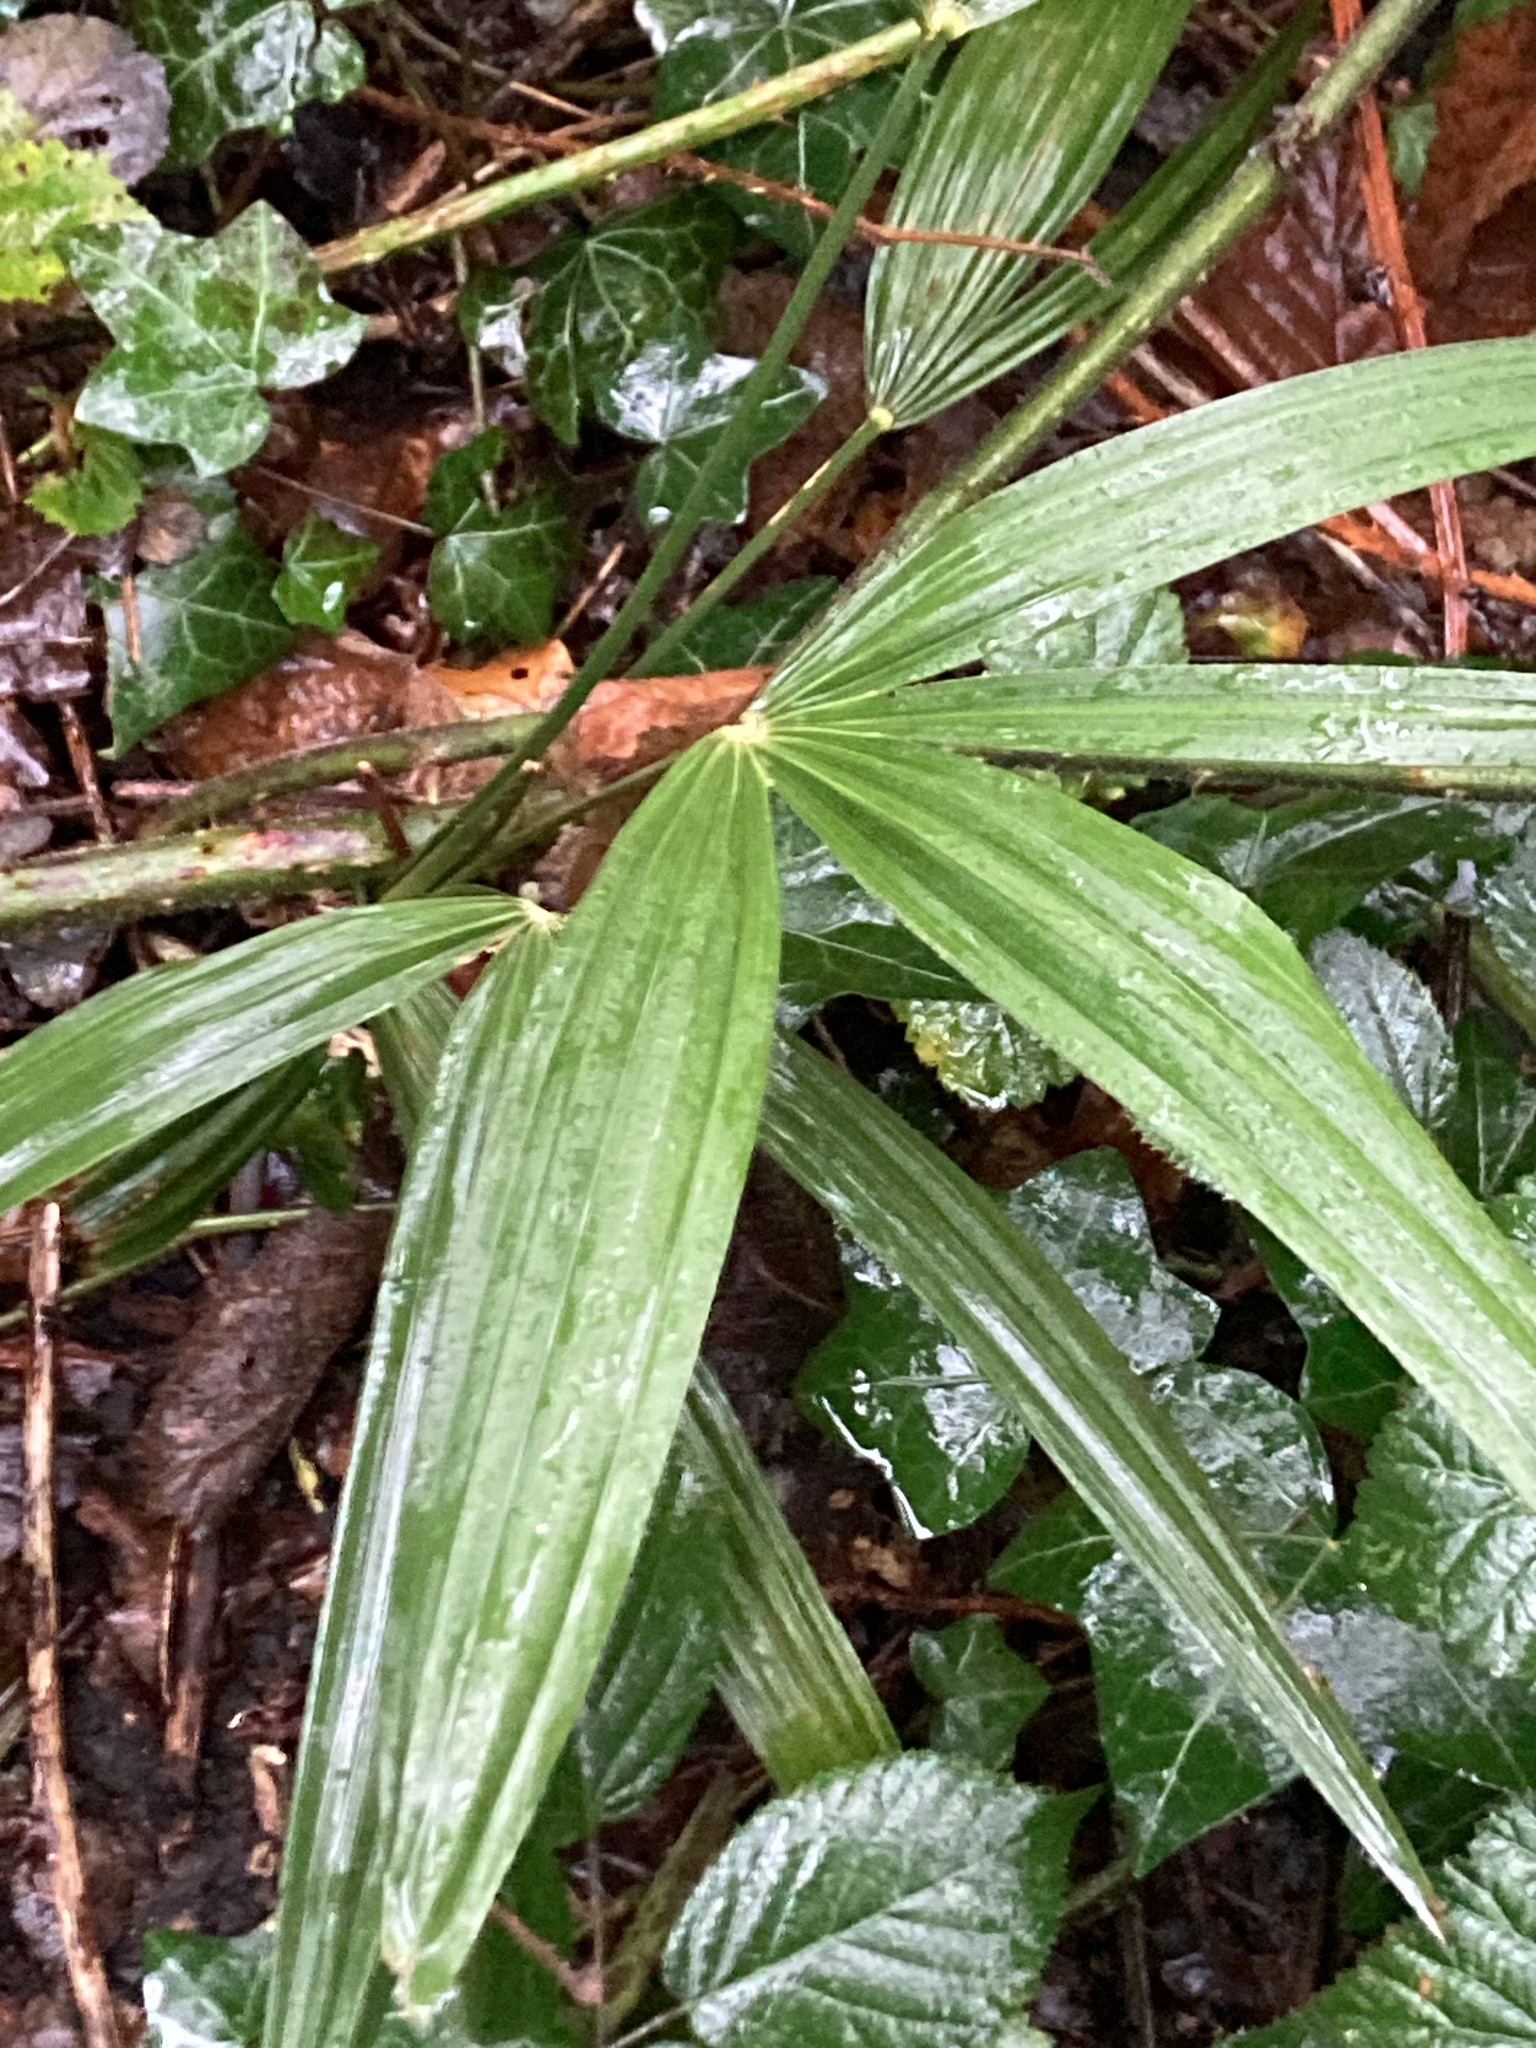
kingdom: Plantae
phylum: Tracheophyta
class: Liliopsida
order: Arecales
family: Arecaceae
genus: Trachycarpus
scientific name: Trachycarpus fortunei
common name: Chusan palm
